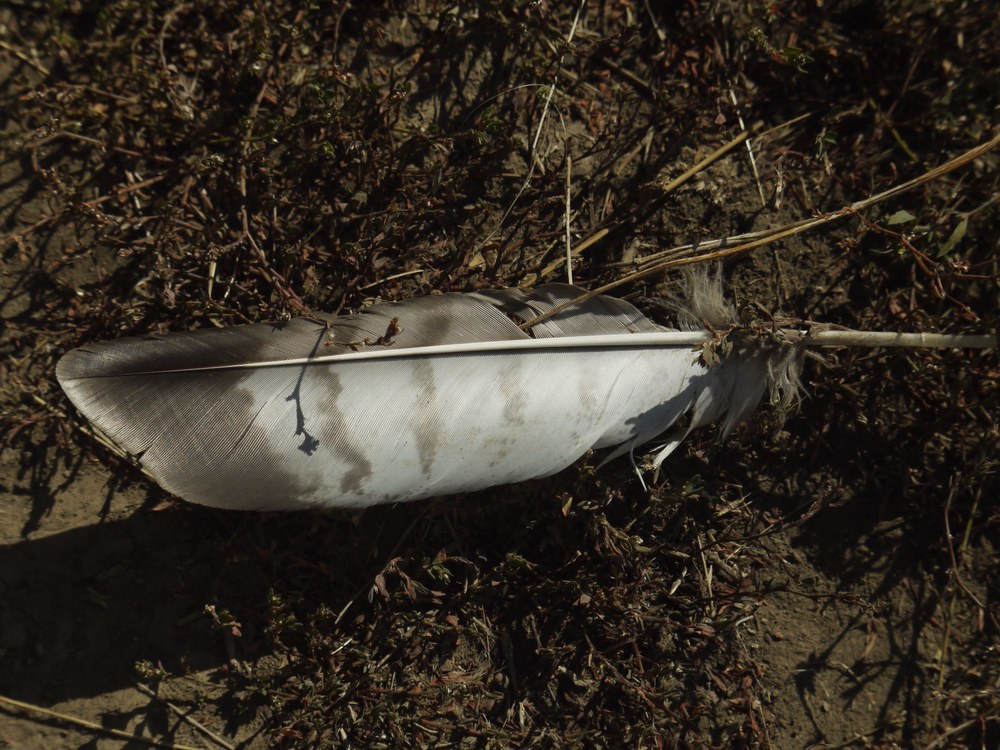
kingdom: Animalia
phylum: Chordata
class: Aves
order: Accipitriformes
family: Accipitridae
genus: Buteo
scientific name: Buteo buteo
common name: Common buzzard
